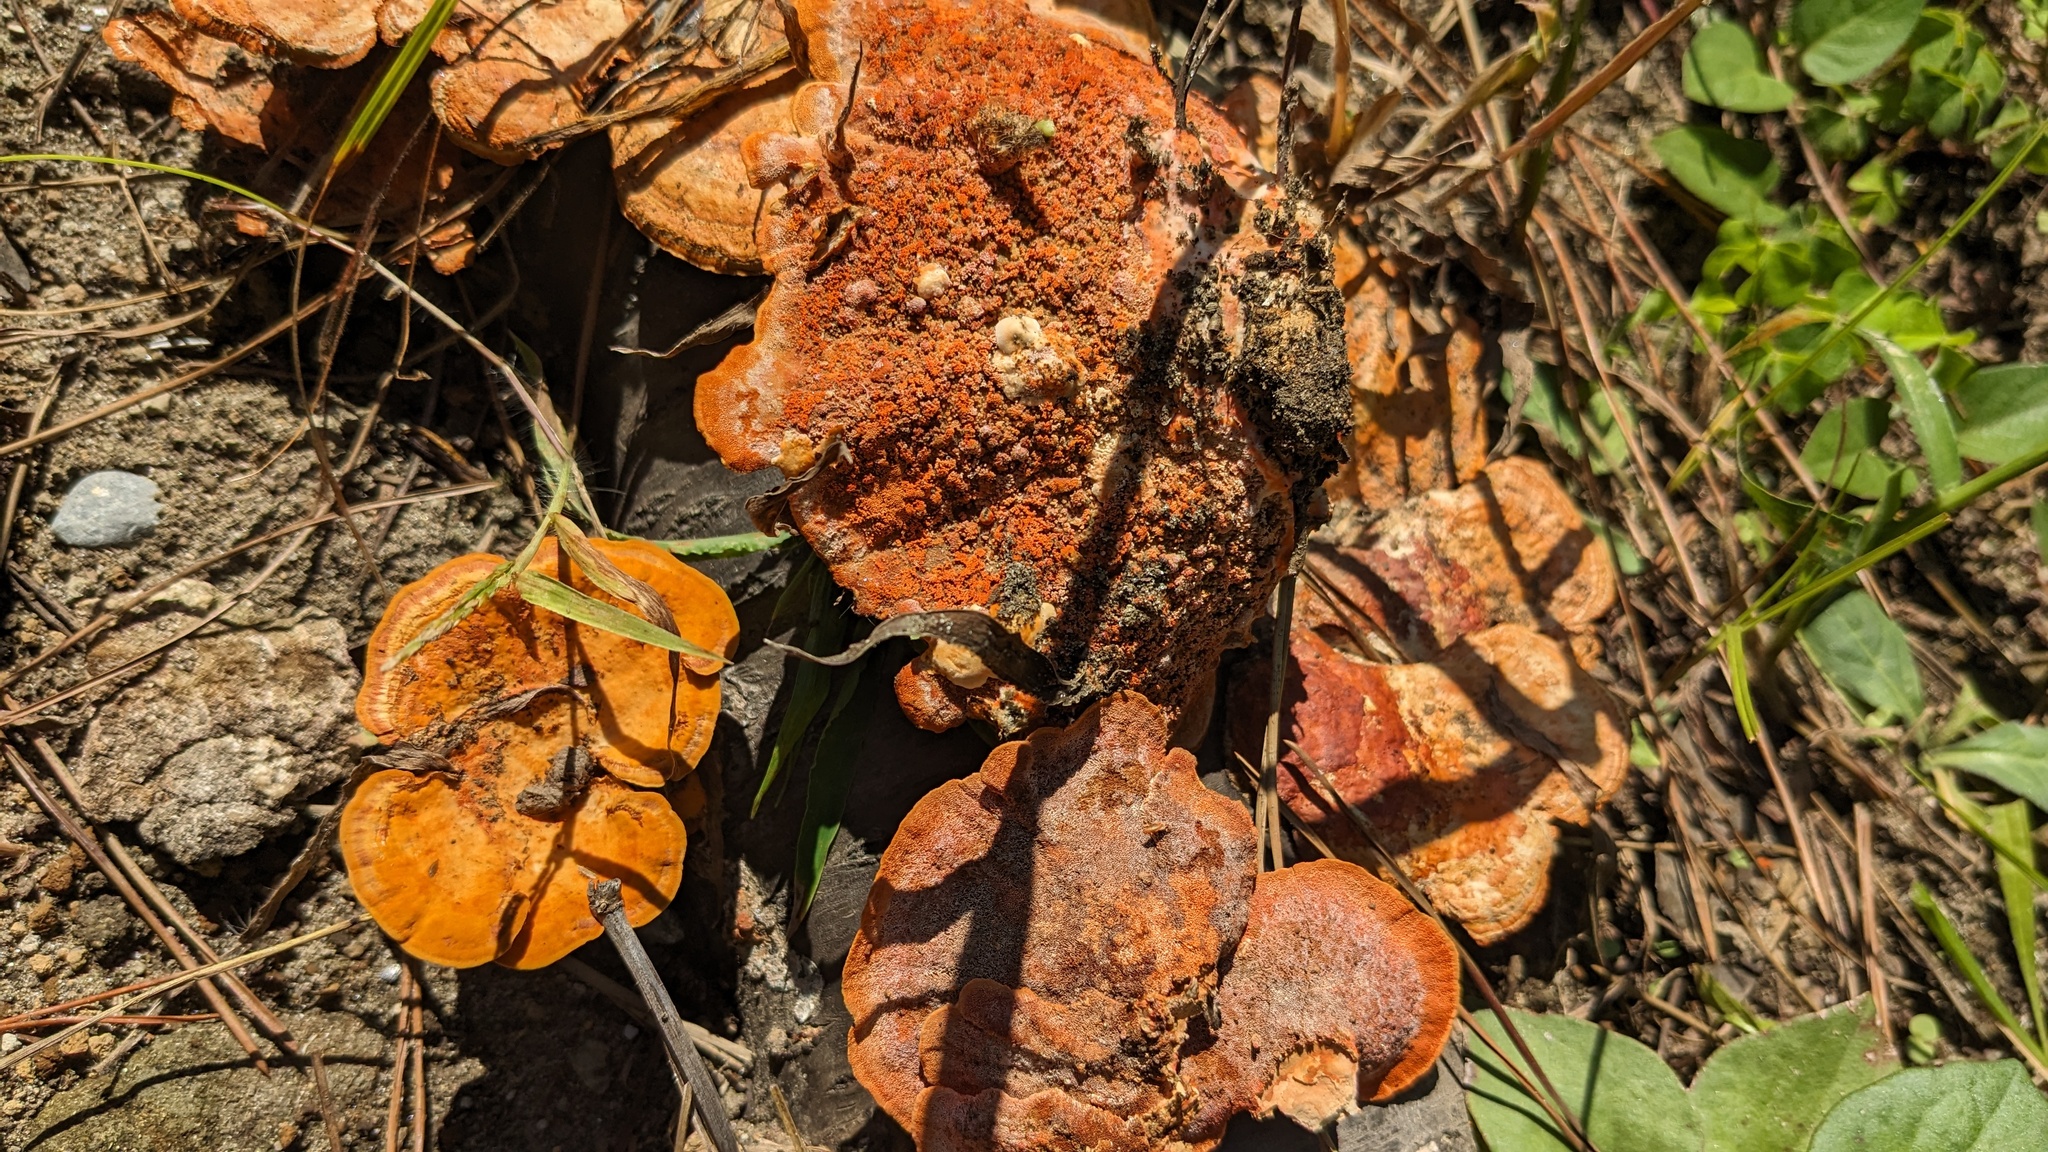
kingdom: Fungi
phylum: Basidiomycota
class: Agaricomycetes
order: Polyporales
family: Polyporaceae
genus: Trametes
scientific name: Trametes coccinea
